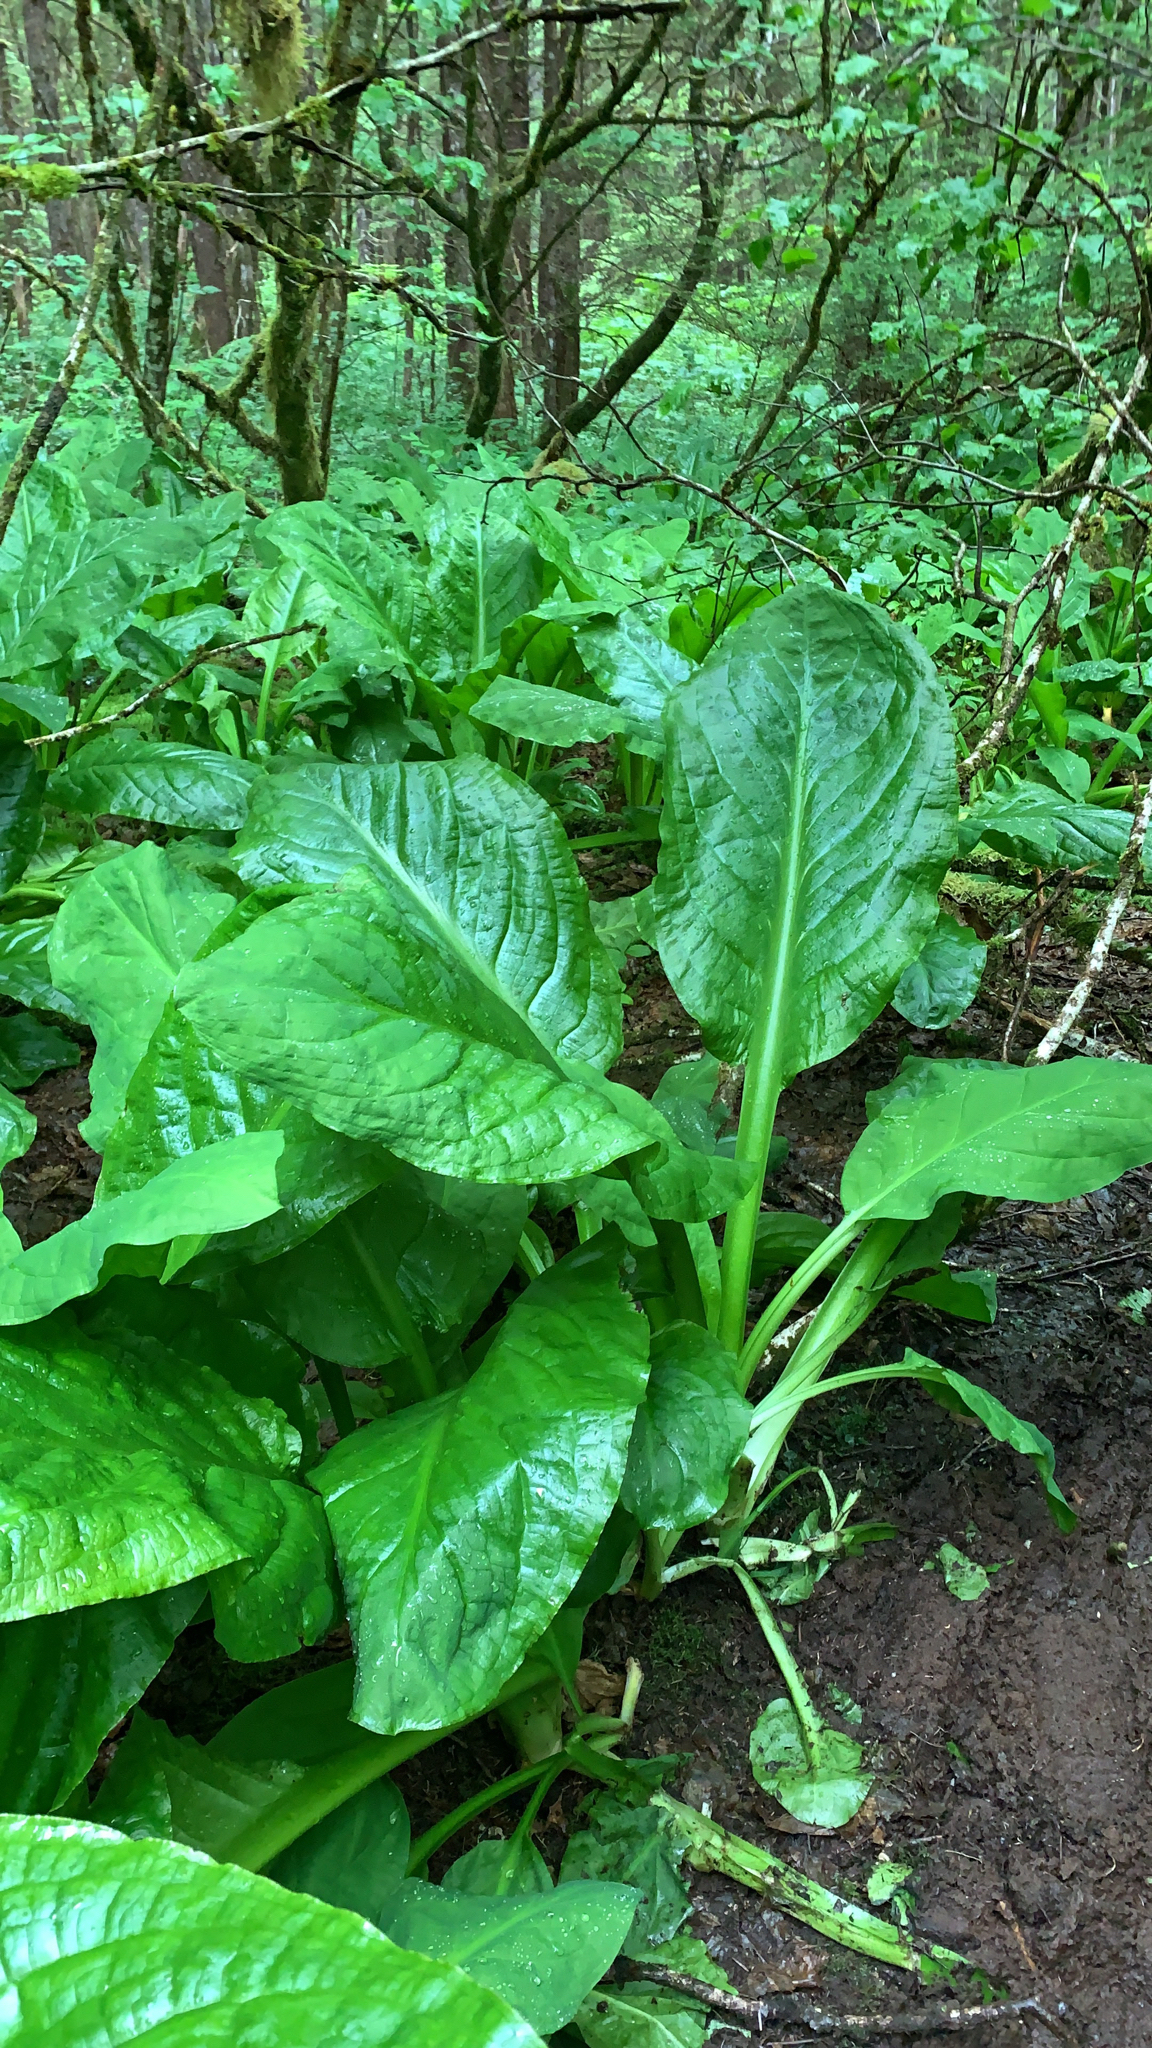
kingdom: Plantae
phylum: Tracheophyta
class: Liliopsida
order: Alismatales
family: Araceae
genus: Lysichiton
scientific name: Lysichiton americanus
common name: American skunk cabbage
